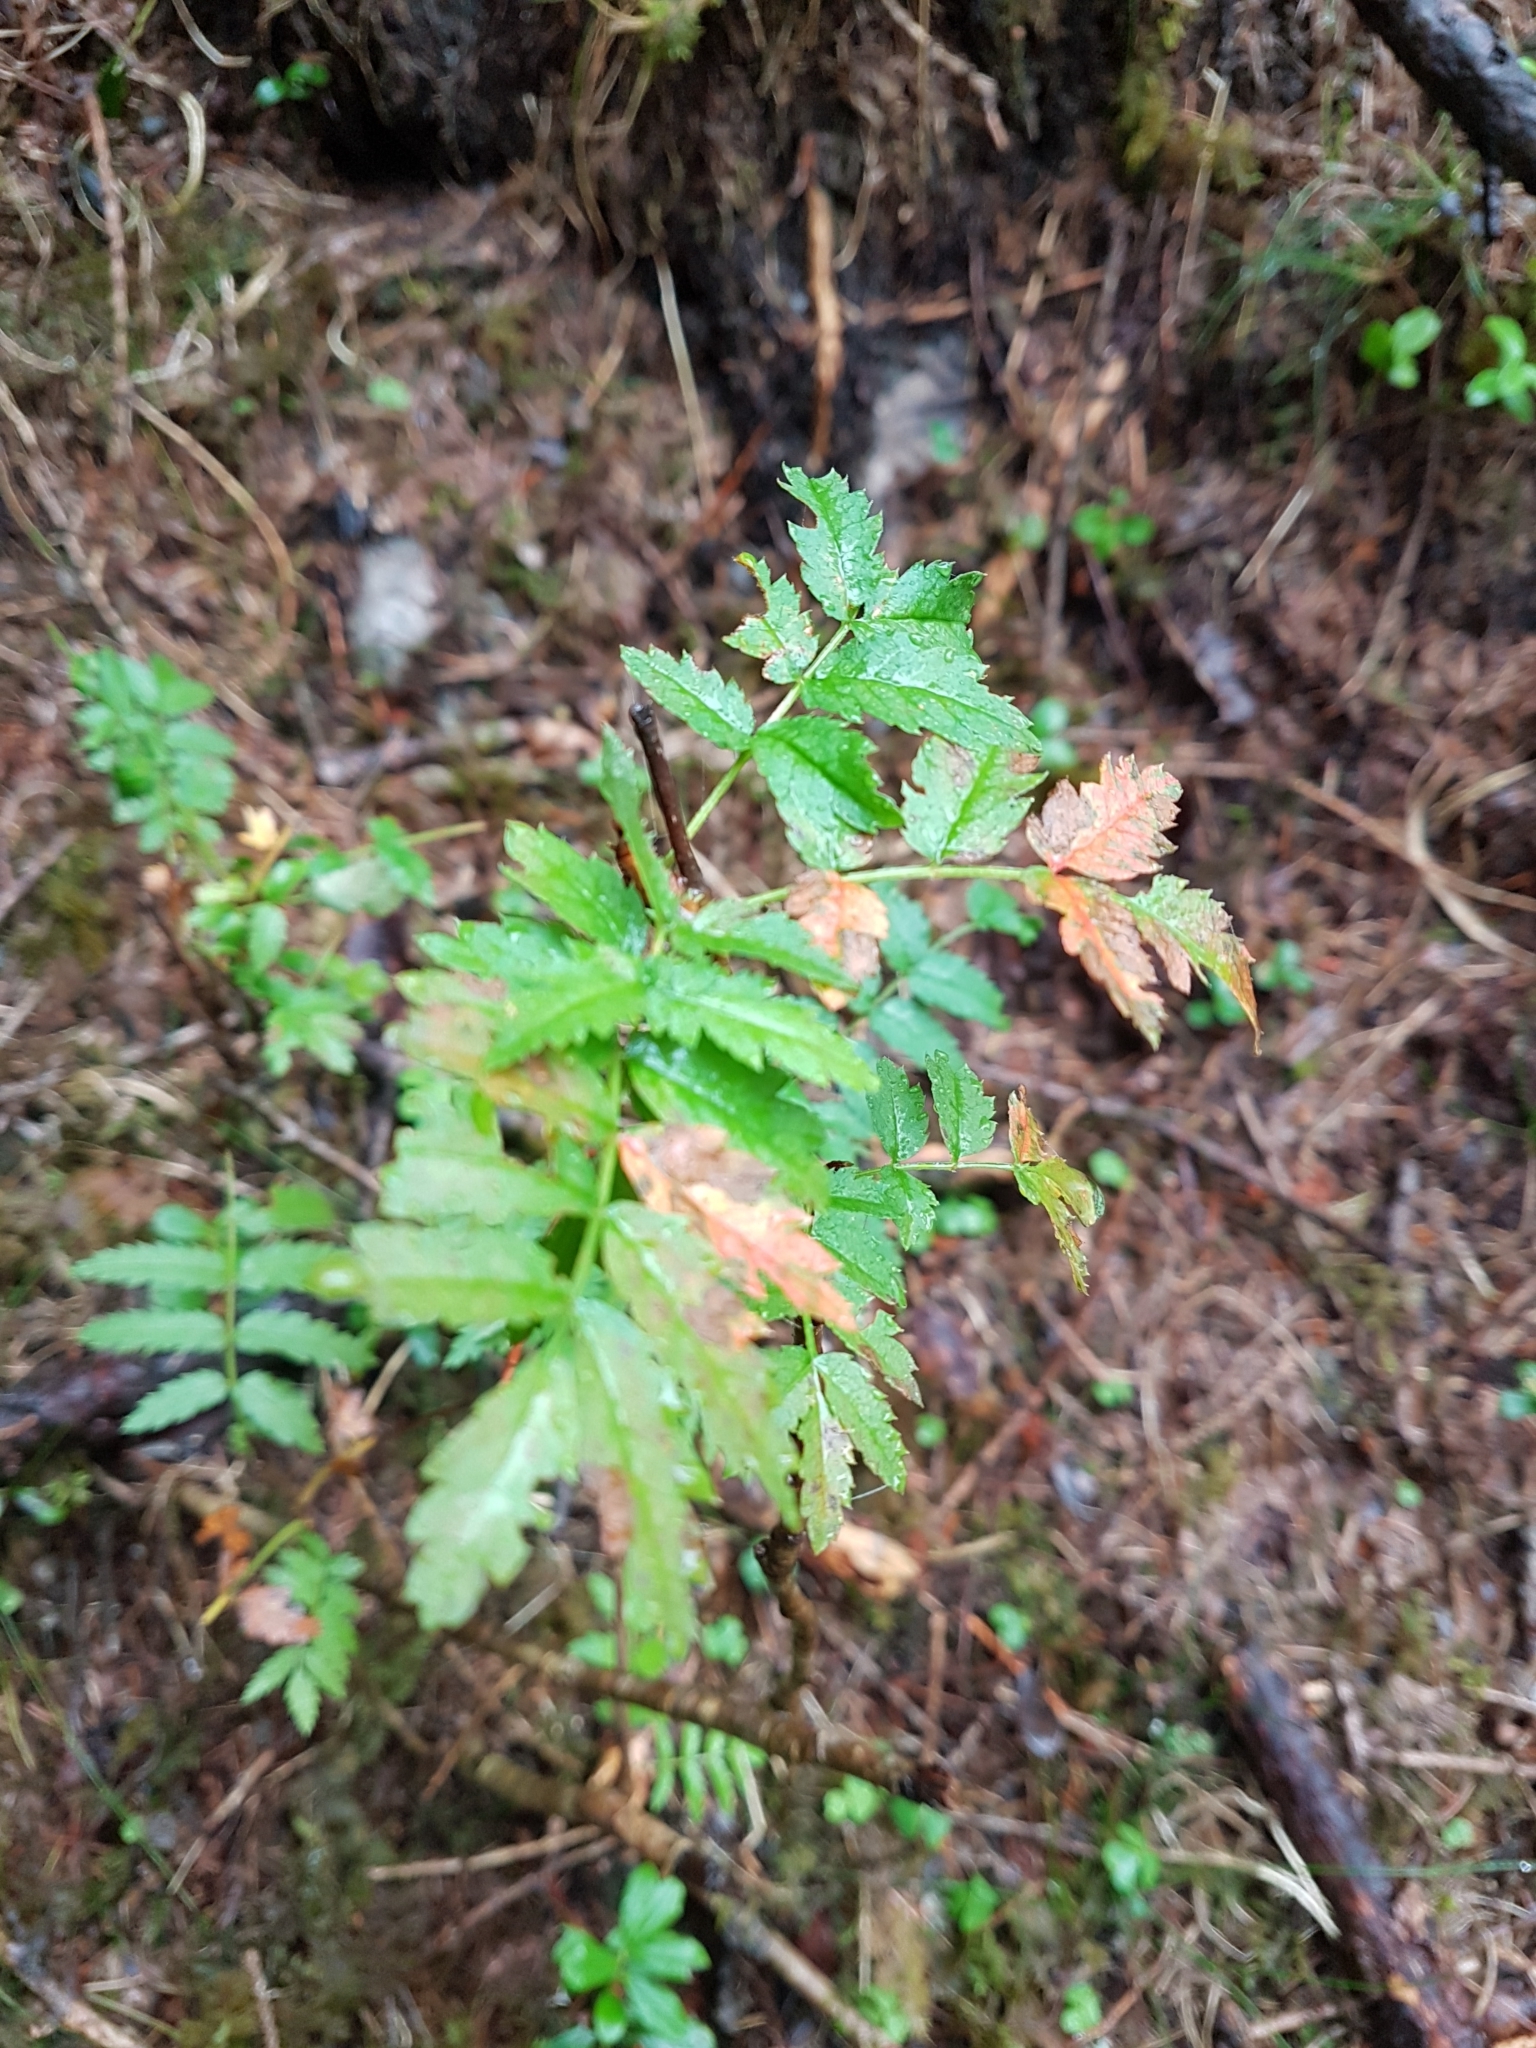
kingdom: Plantae
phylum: Tracheophyta
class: Magnoliopsida
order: Rosales
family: Rosaceae
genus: Sorbus
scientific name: Sorbus aucuparia
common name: Rowan
